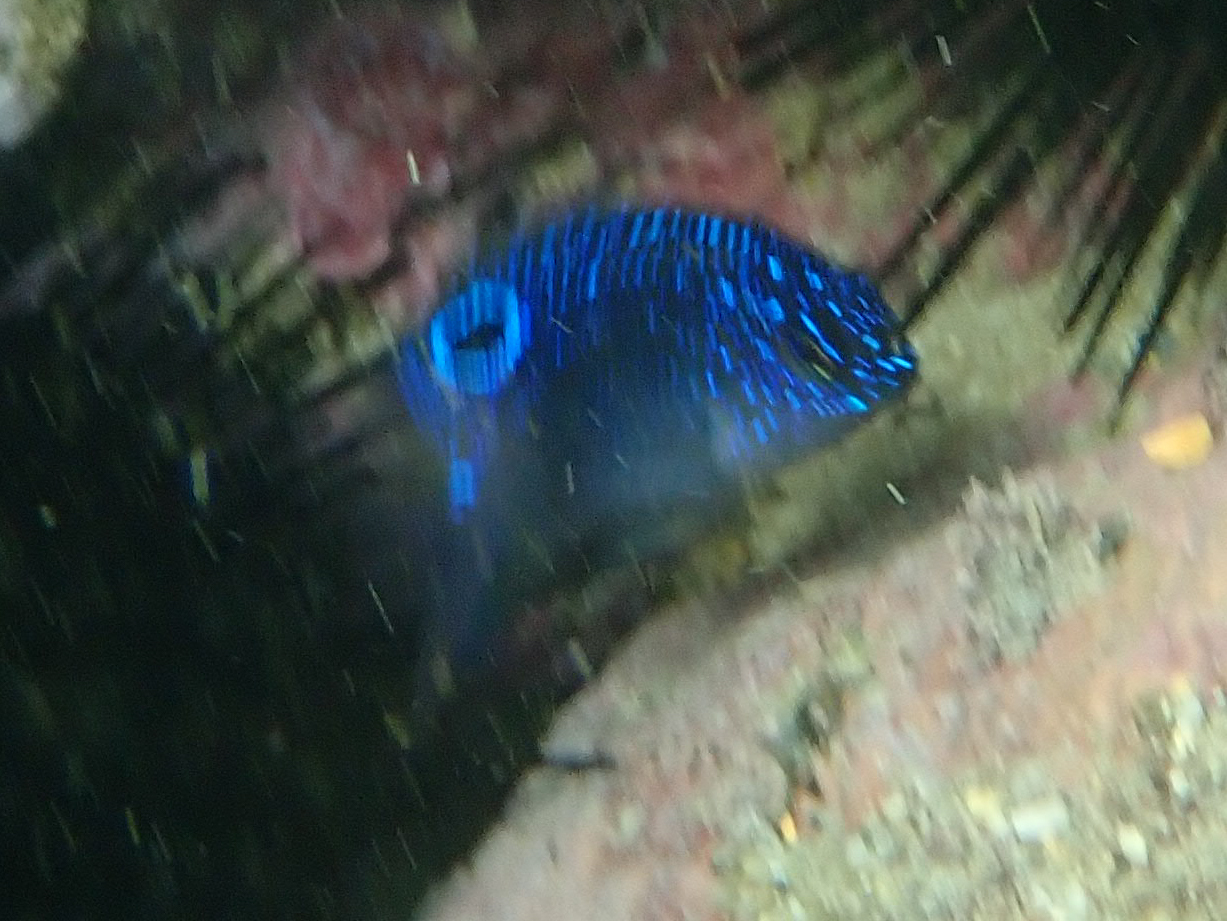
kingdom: Animalia
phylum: Chordata
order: Perciformes
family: Pomacentridae
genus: Stegastes
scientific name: Stegastes imbricatus
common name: Cape verde gregory
